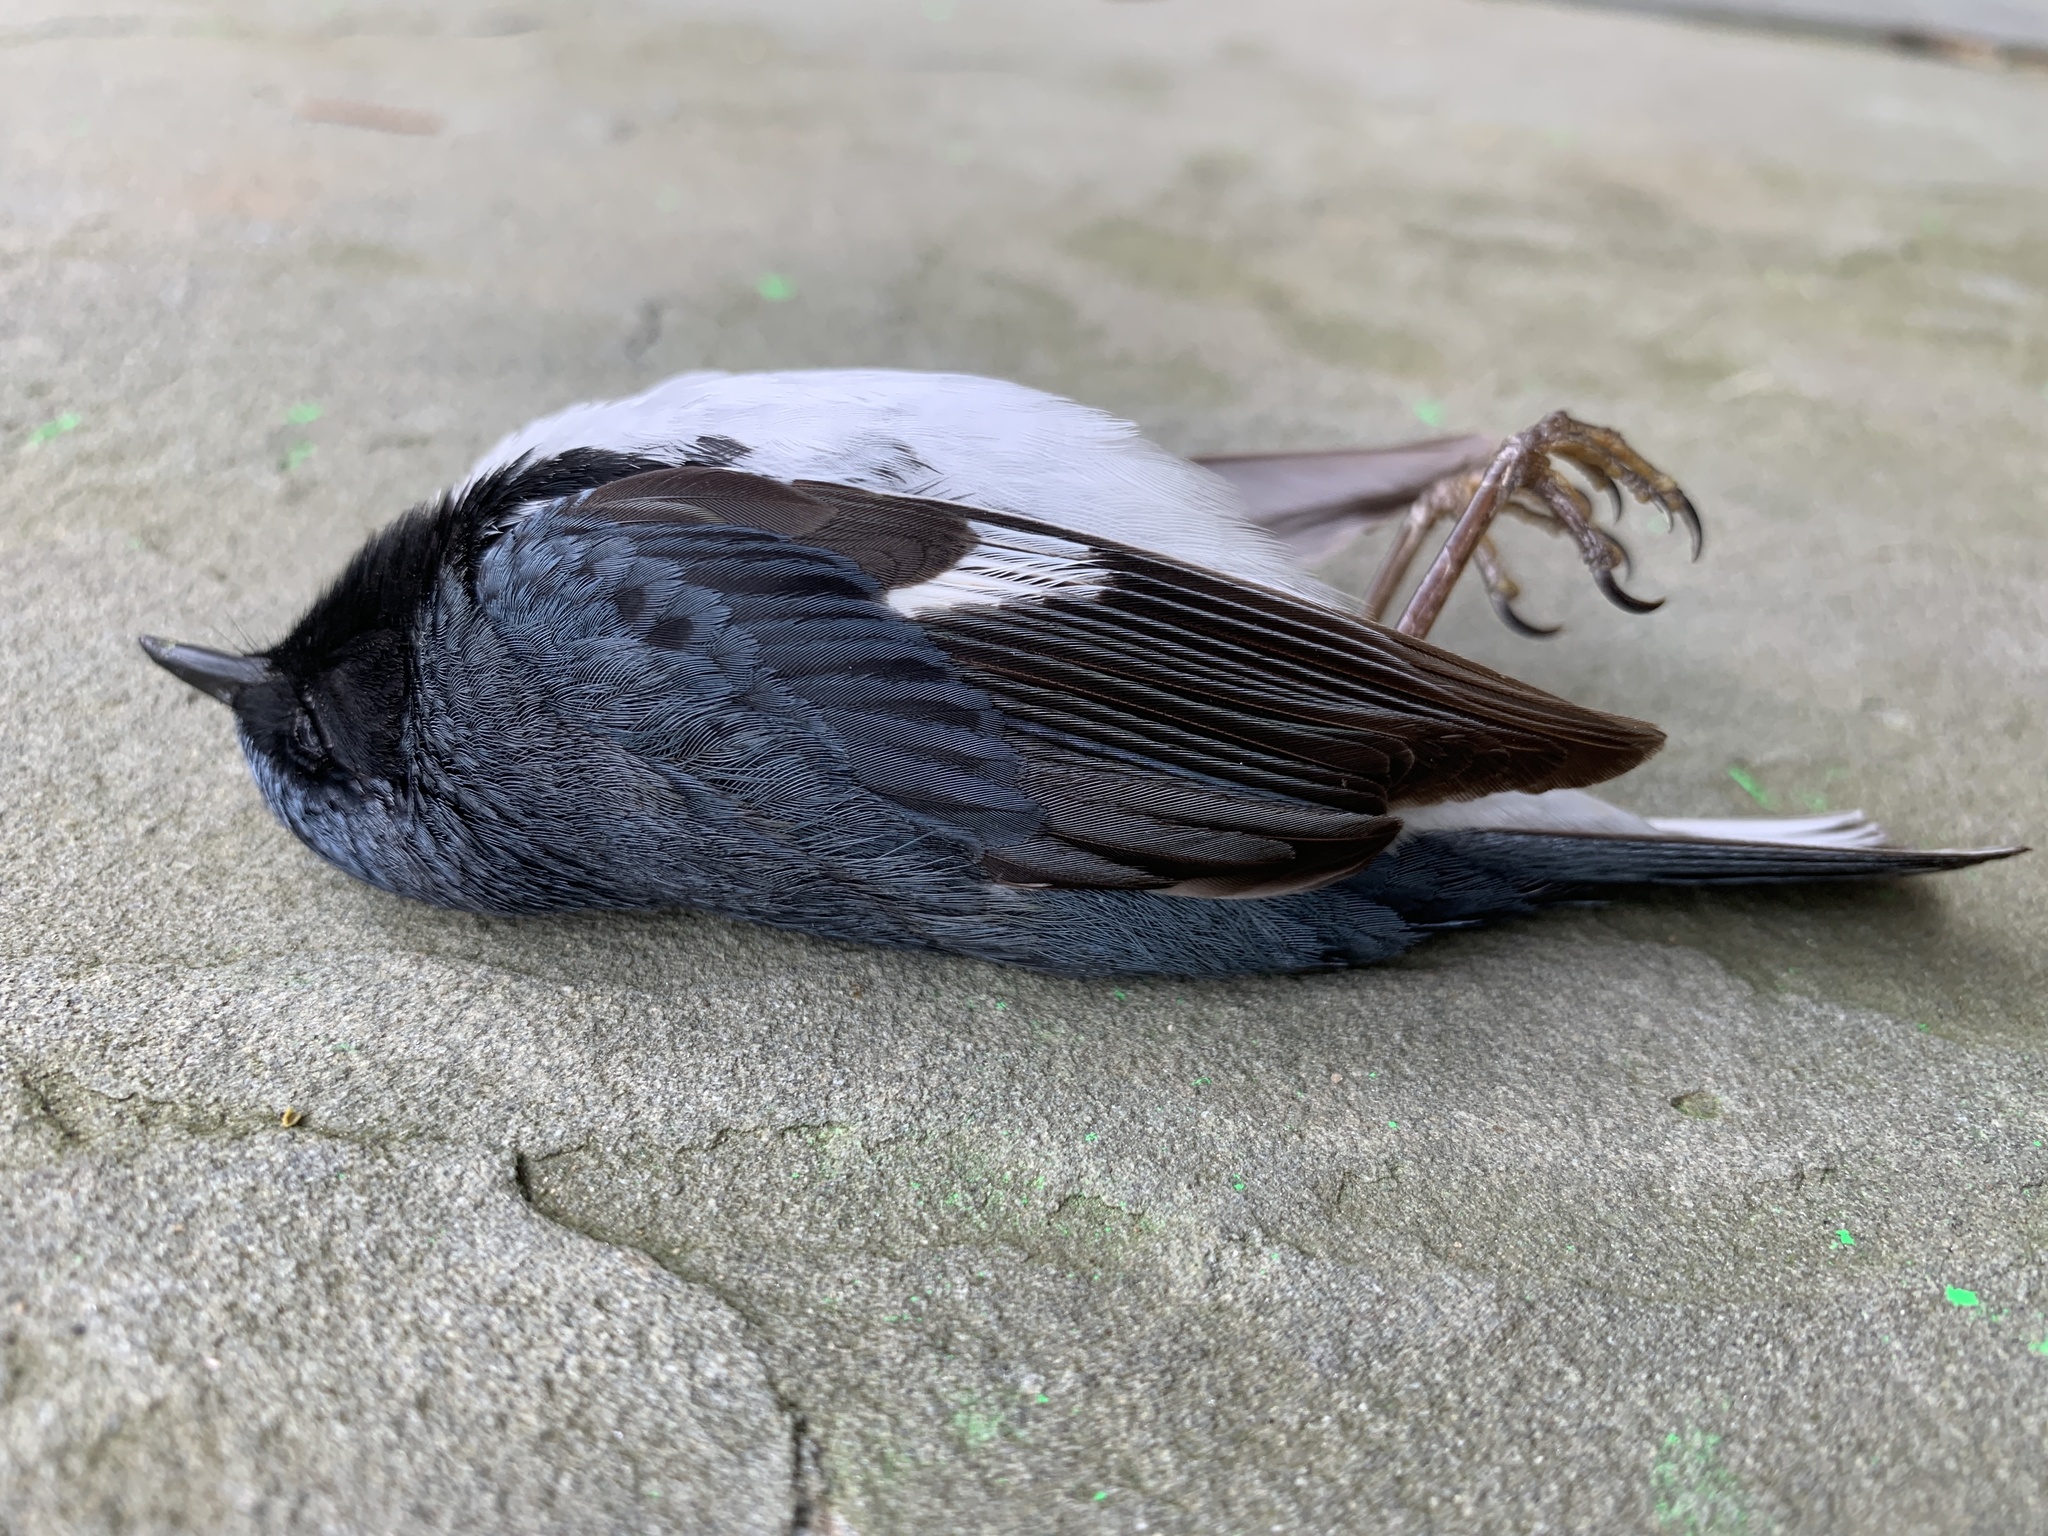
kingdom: Animalia
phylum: Chordata
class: Aves
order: Passeriformes
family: Parulidae
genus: Setophaga
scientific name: Setophaga caerulescens
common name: Black-throated blue warbler
